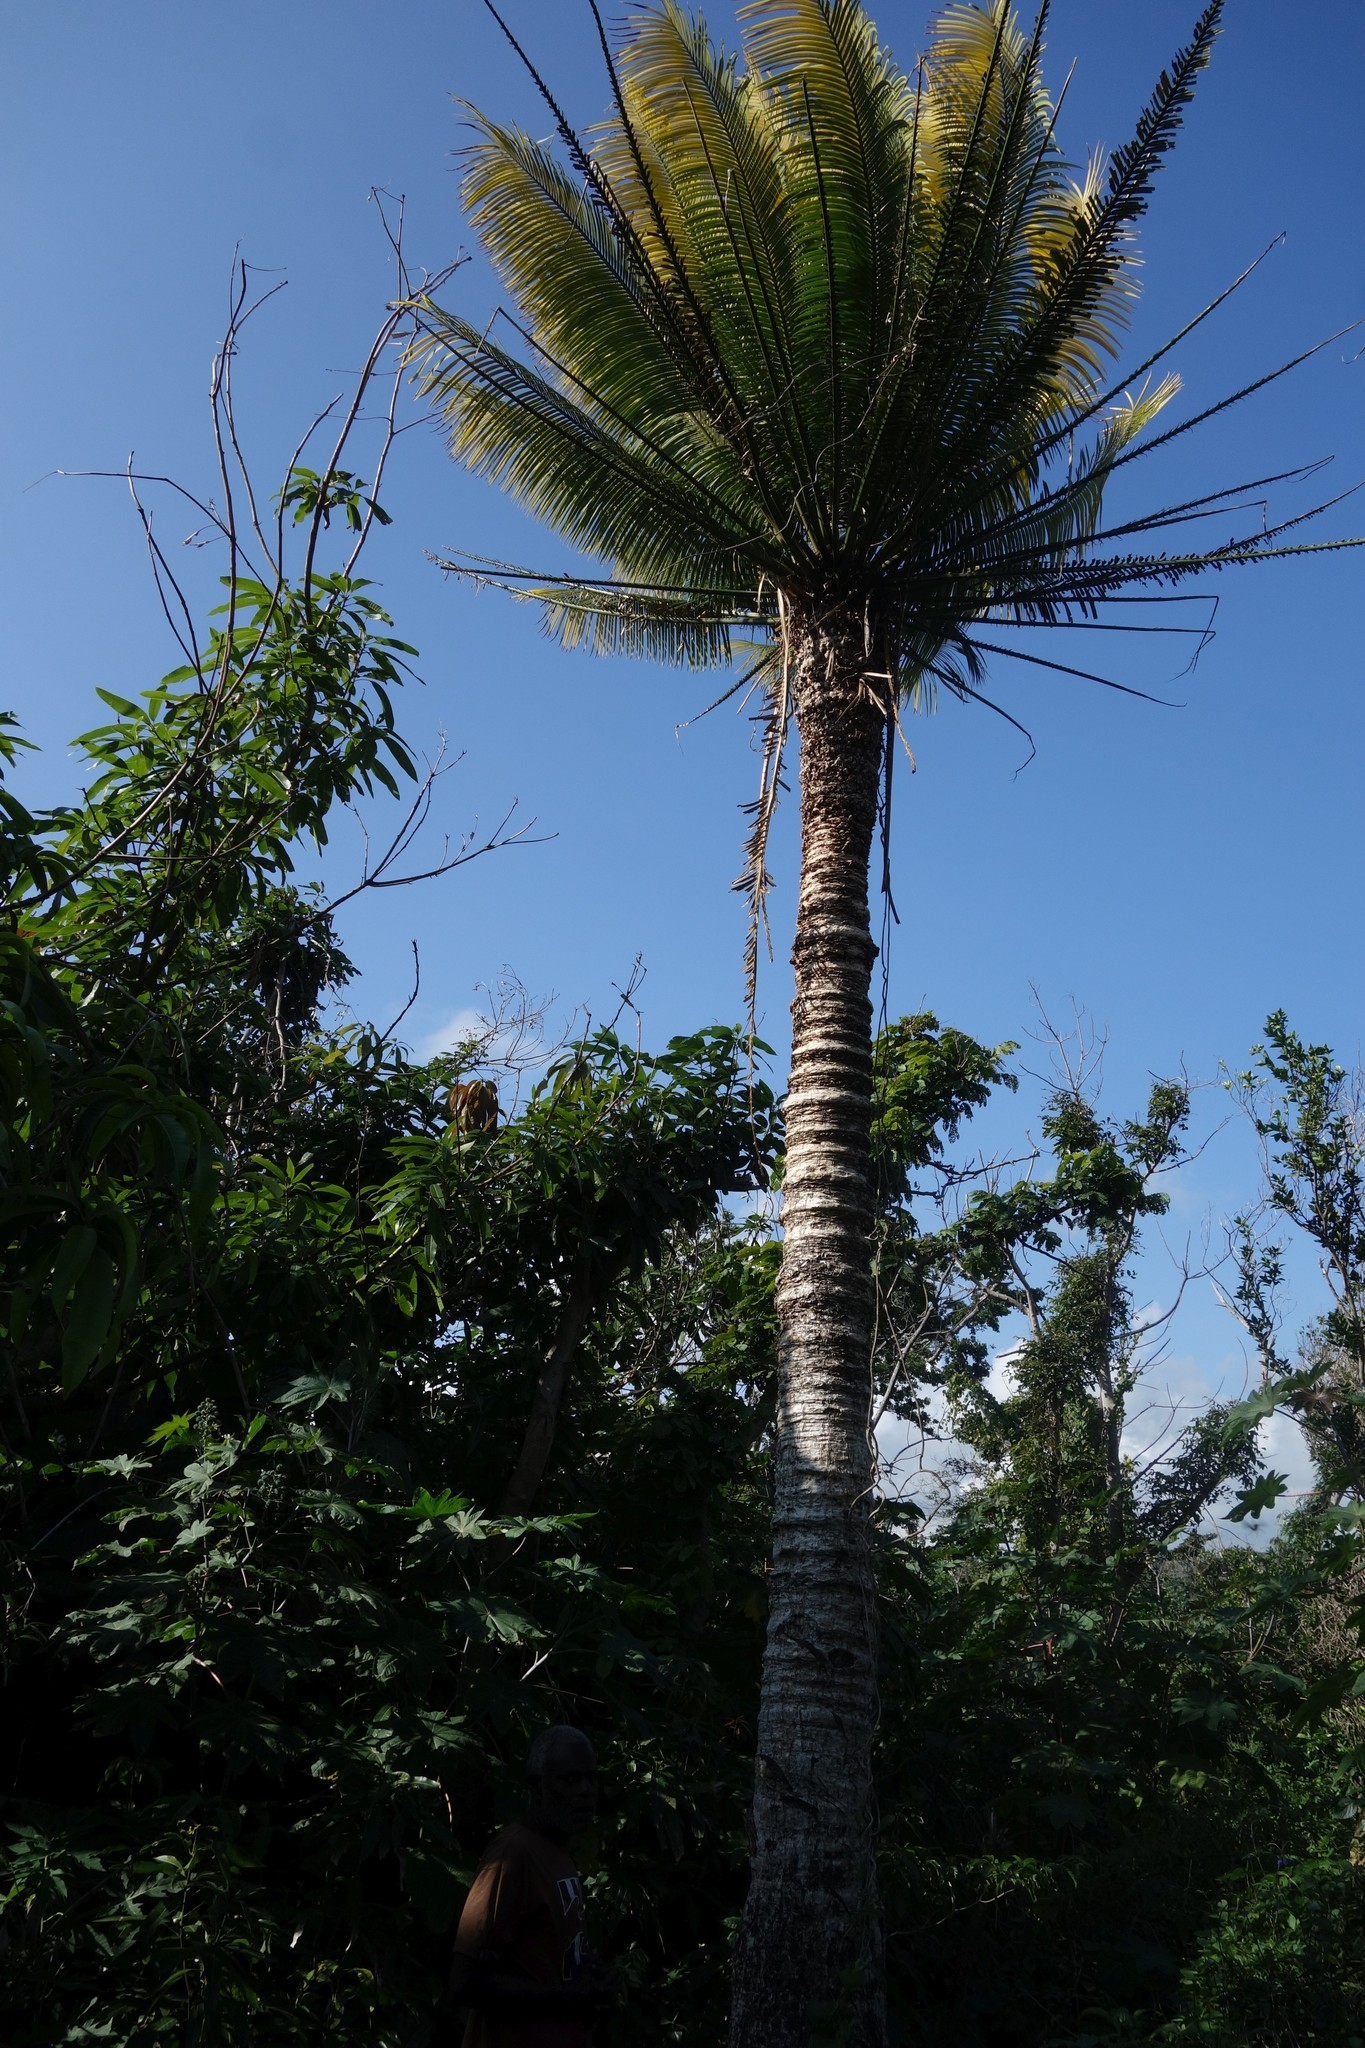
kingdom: Plantae
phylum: Tracheophyta
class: Cycadopsida
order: Cycadales
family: Cycadaceae
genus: Cycas
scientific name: Cycas seemannii
